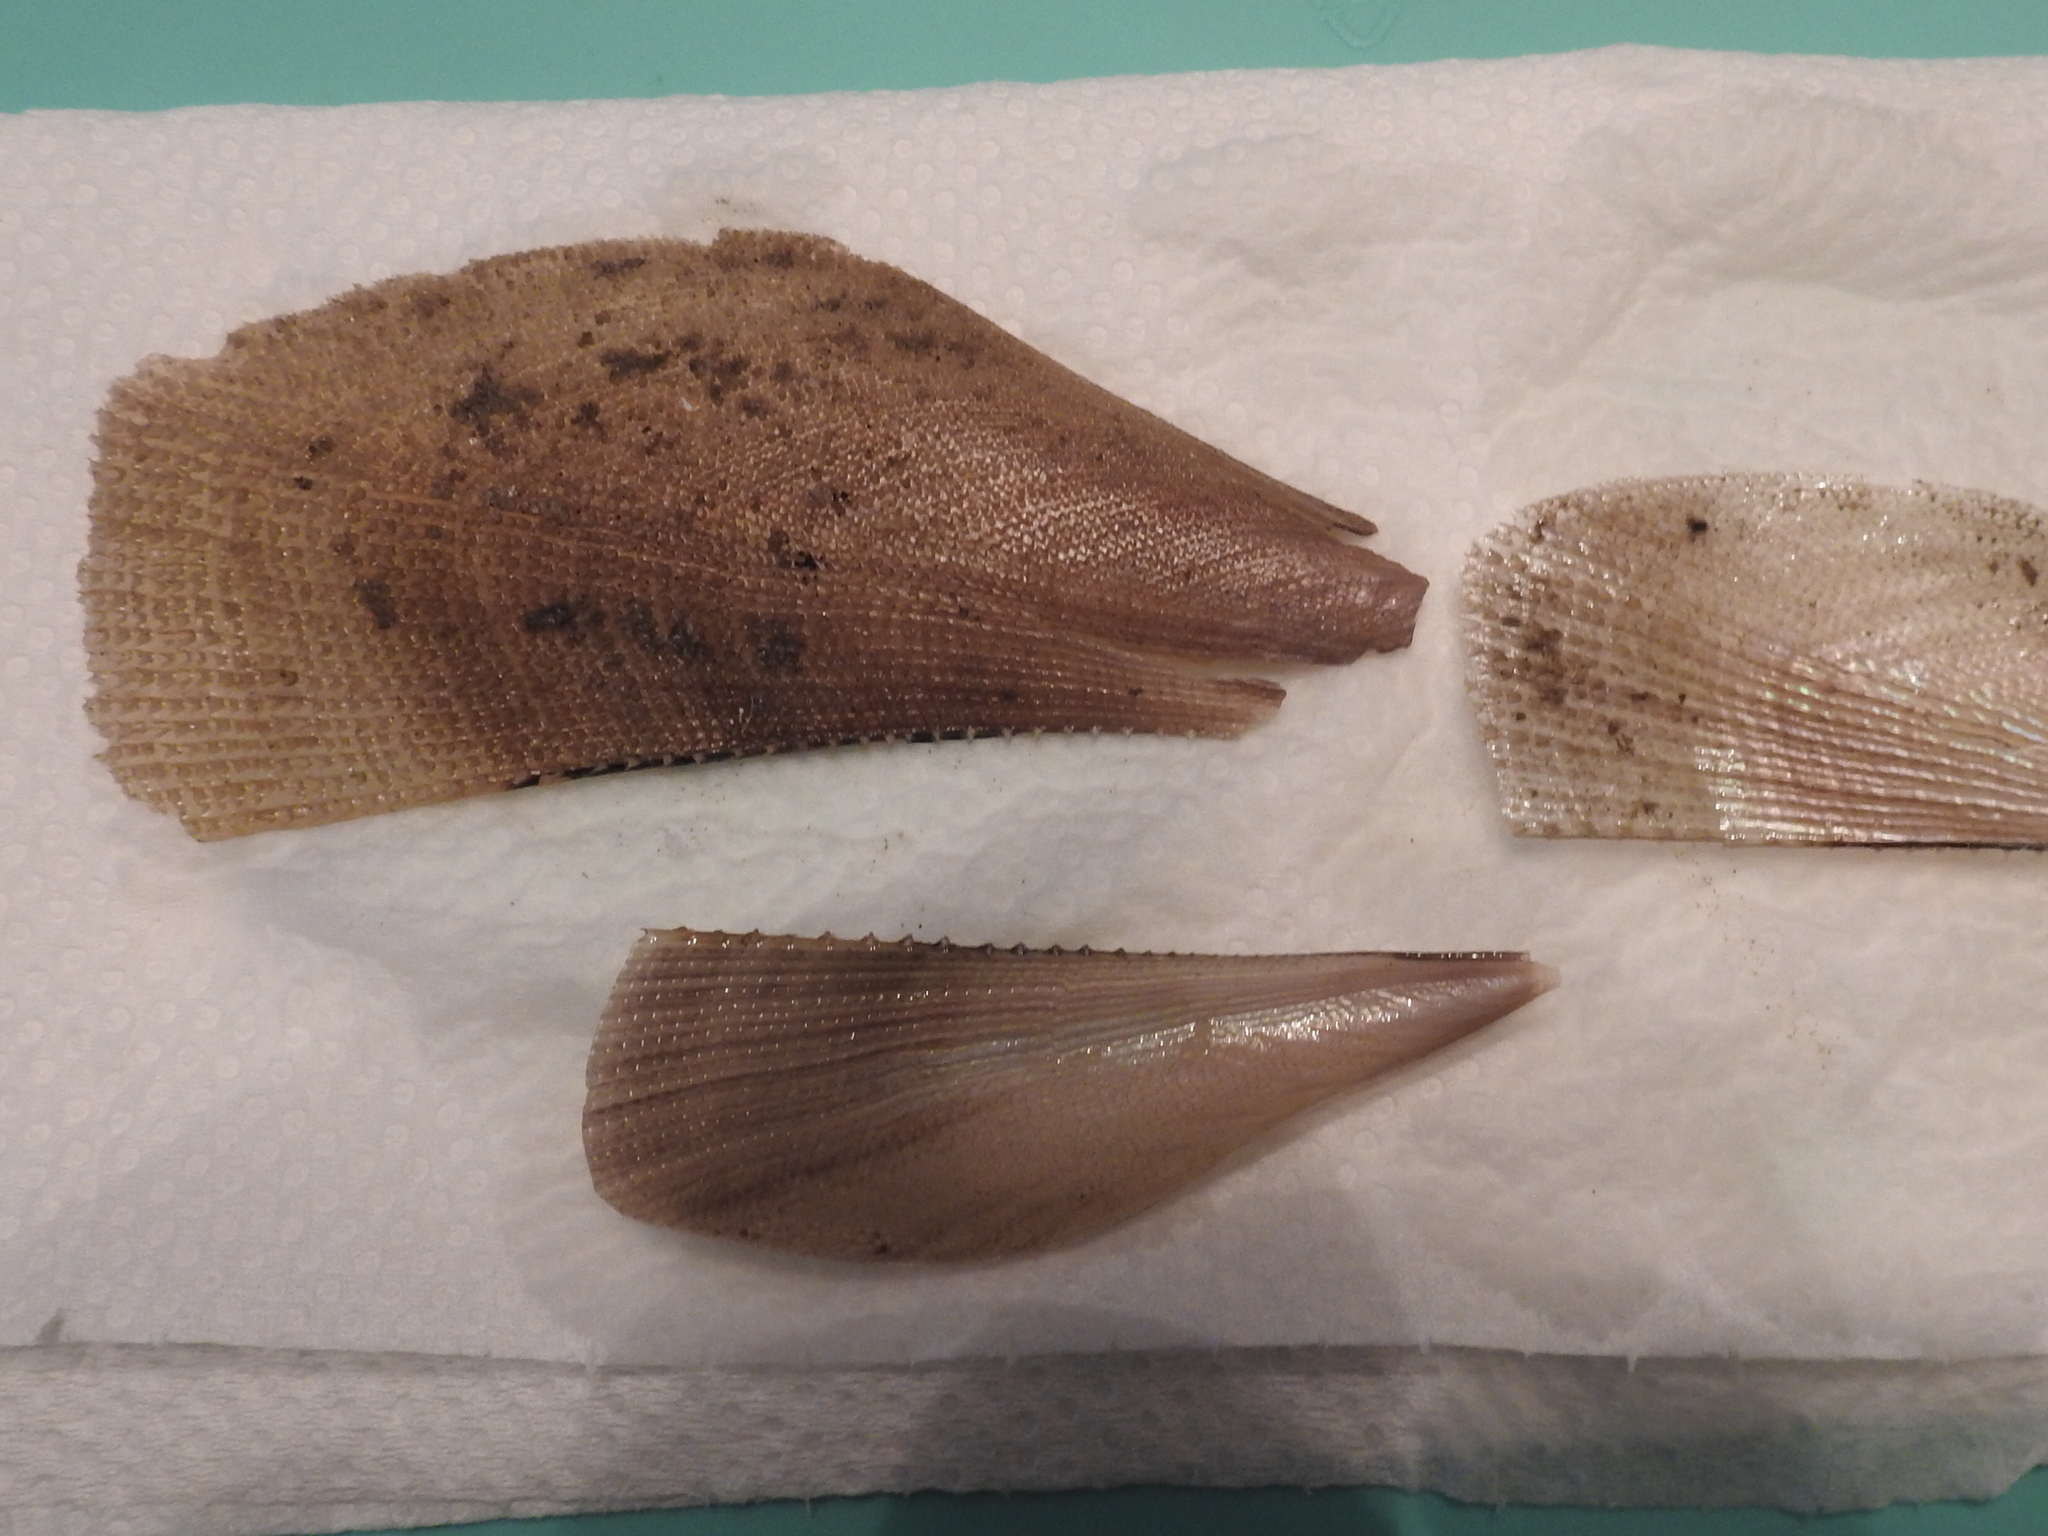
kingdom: Animalia
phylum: Mollusca
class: Bivalvia
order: Ostreida
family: Pinnidae
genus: Atrina
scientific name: Atrina serrata
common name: Saw-toothed penshell
